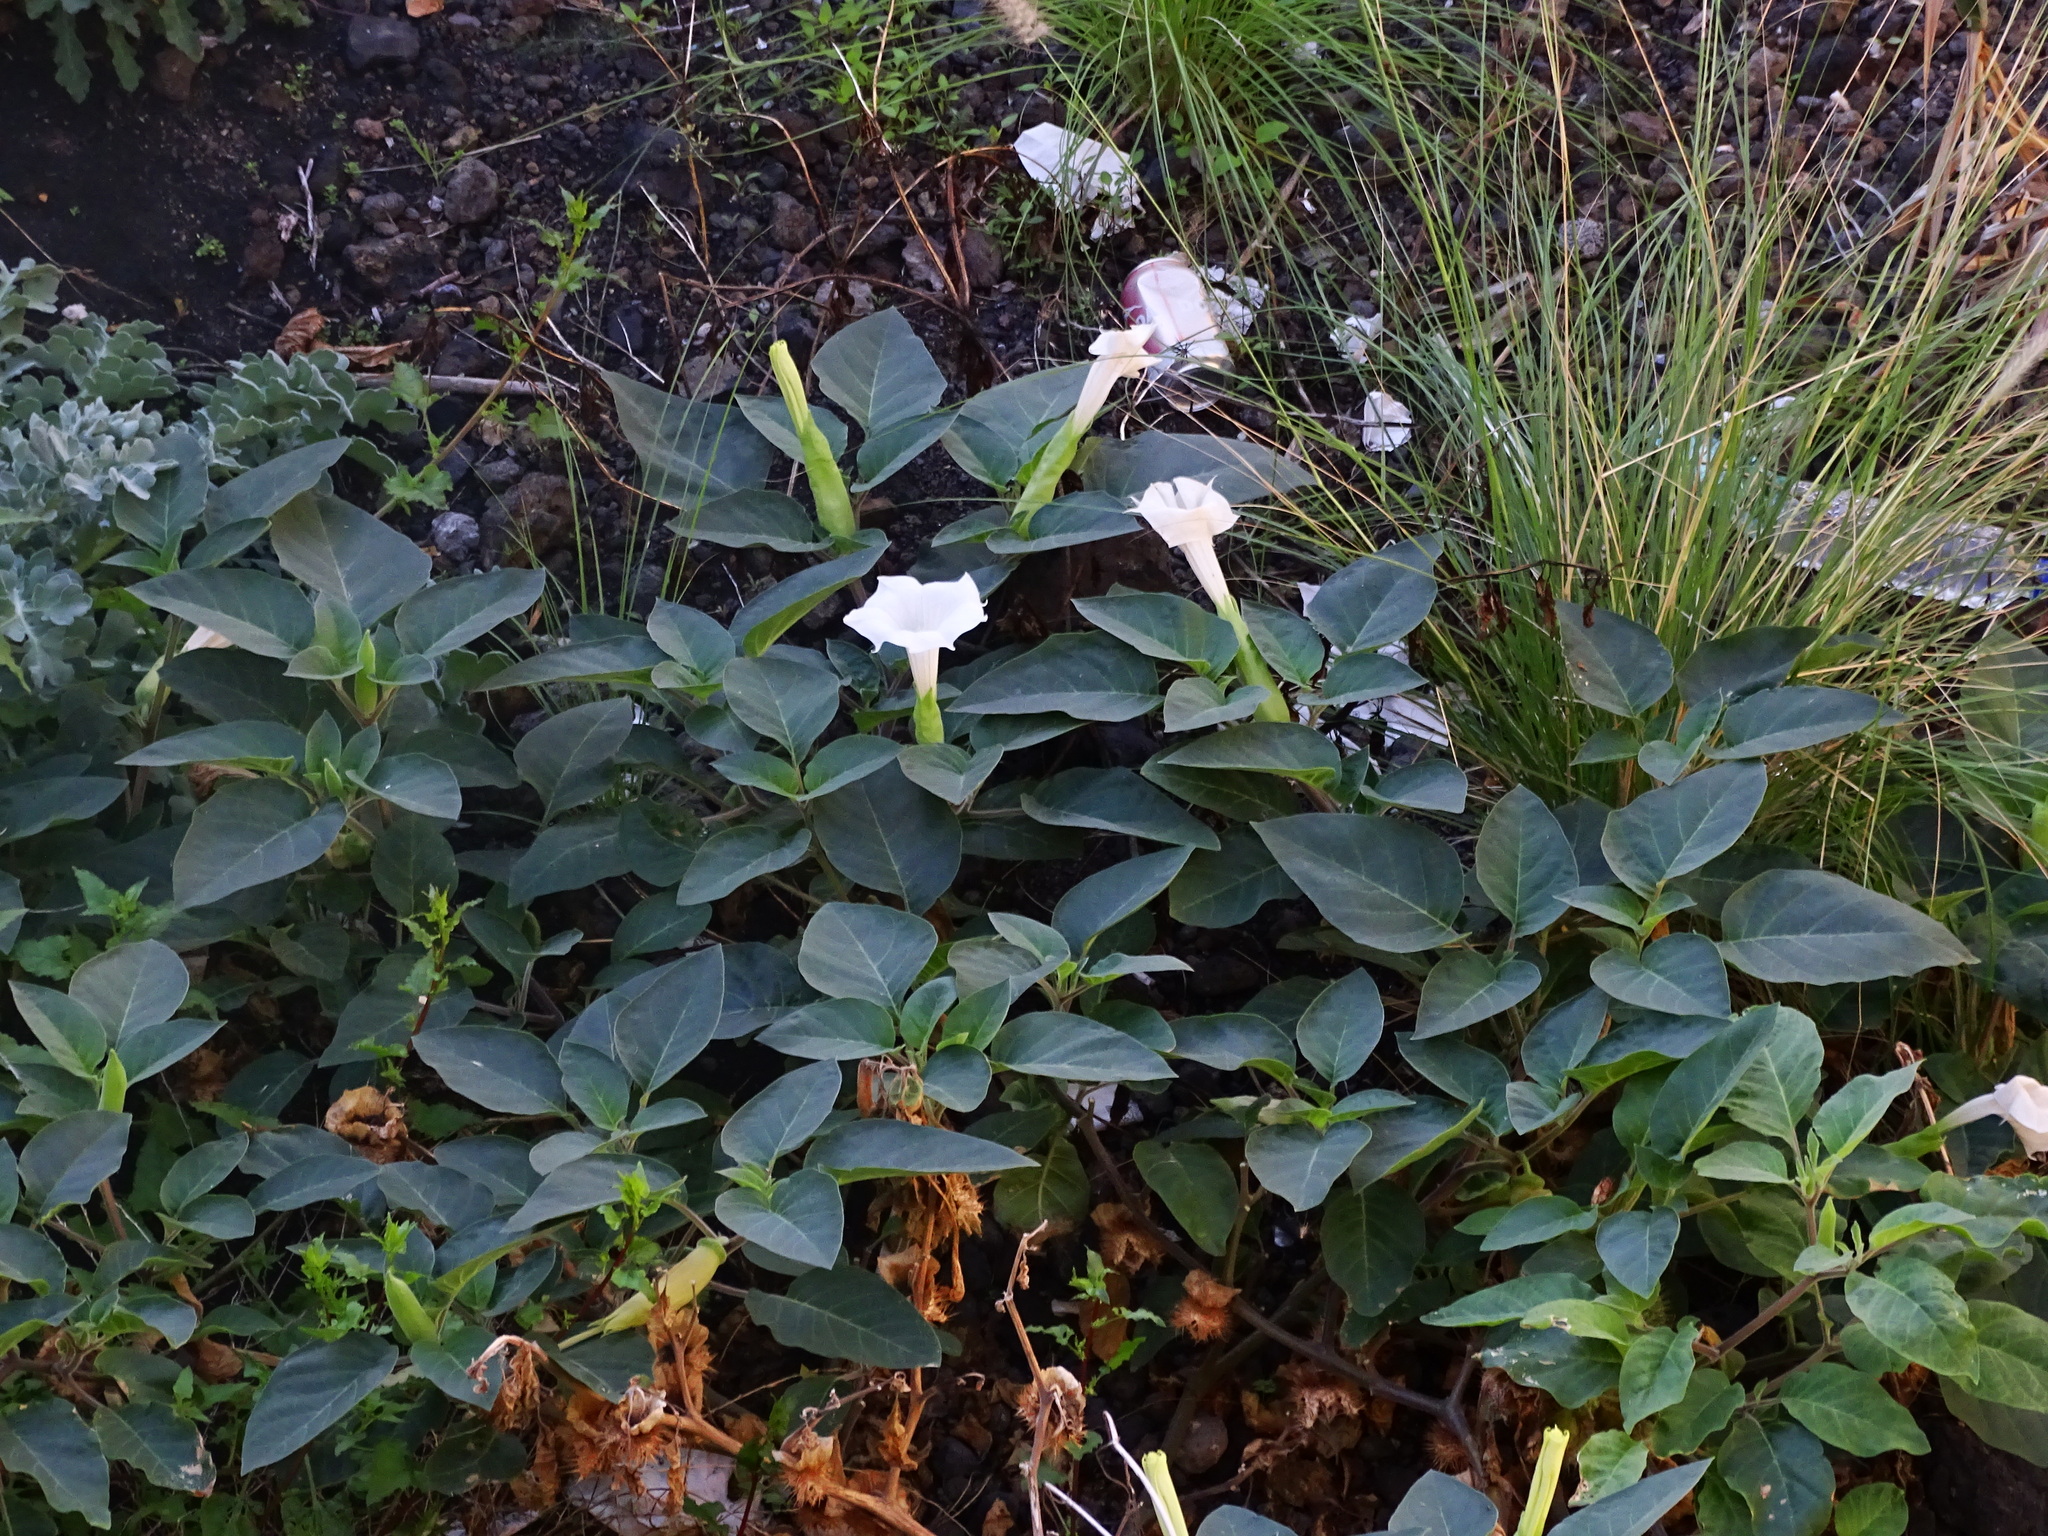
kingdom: Plantae
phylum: Tracheophyta
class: Magnoliopsida
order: Solanales
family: Solanaceae
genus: Datura
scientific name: Datura innoxia
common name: Downy thorn-apple
